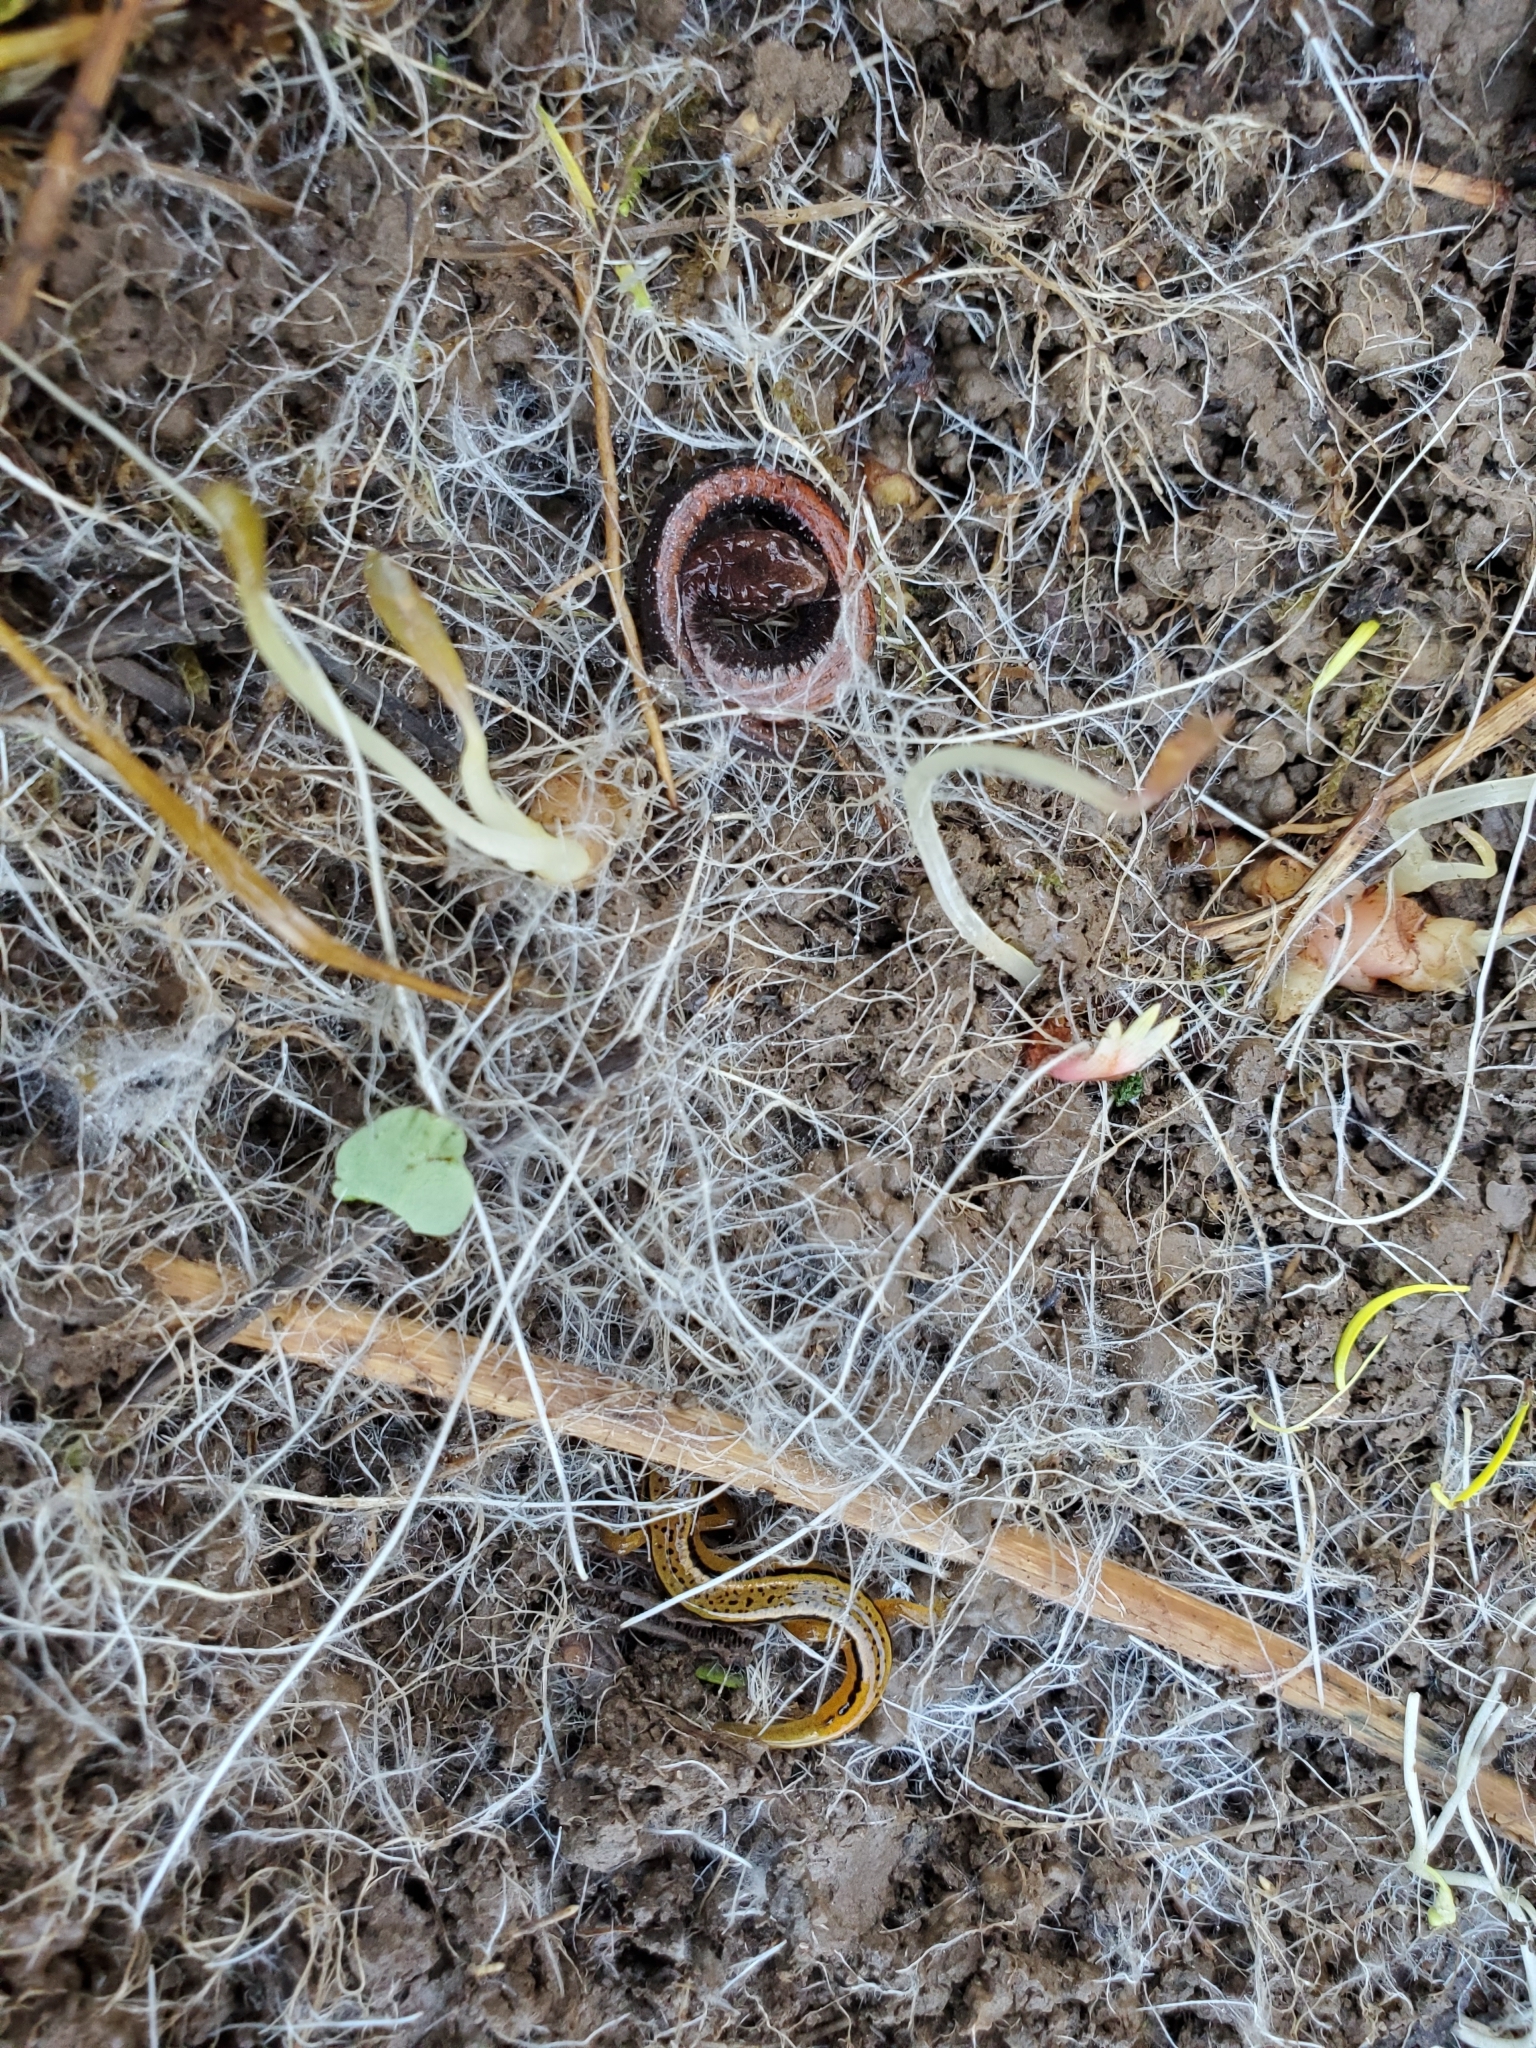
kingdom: Animalia
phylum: Chordata
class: Amphibia
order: Caudata
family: Plethodontidae
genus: Plethodon
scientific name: Plethodon serratus
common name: Southern red-backed salamander
